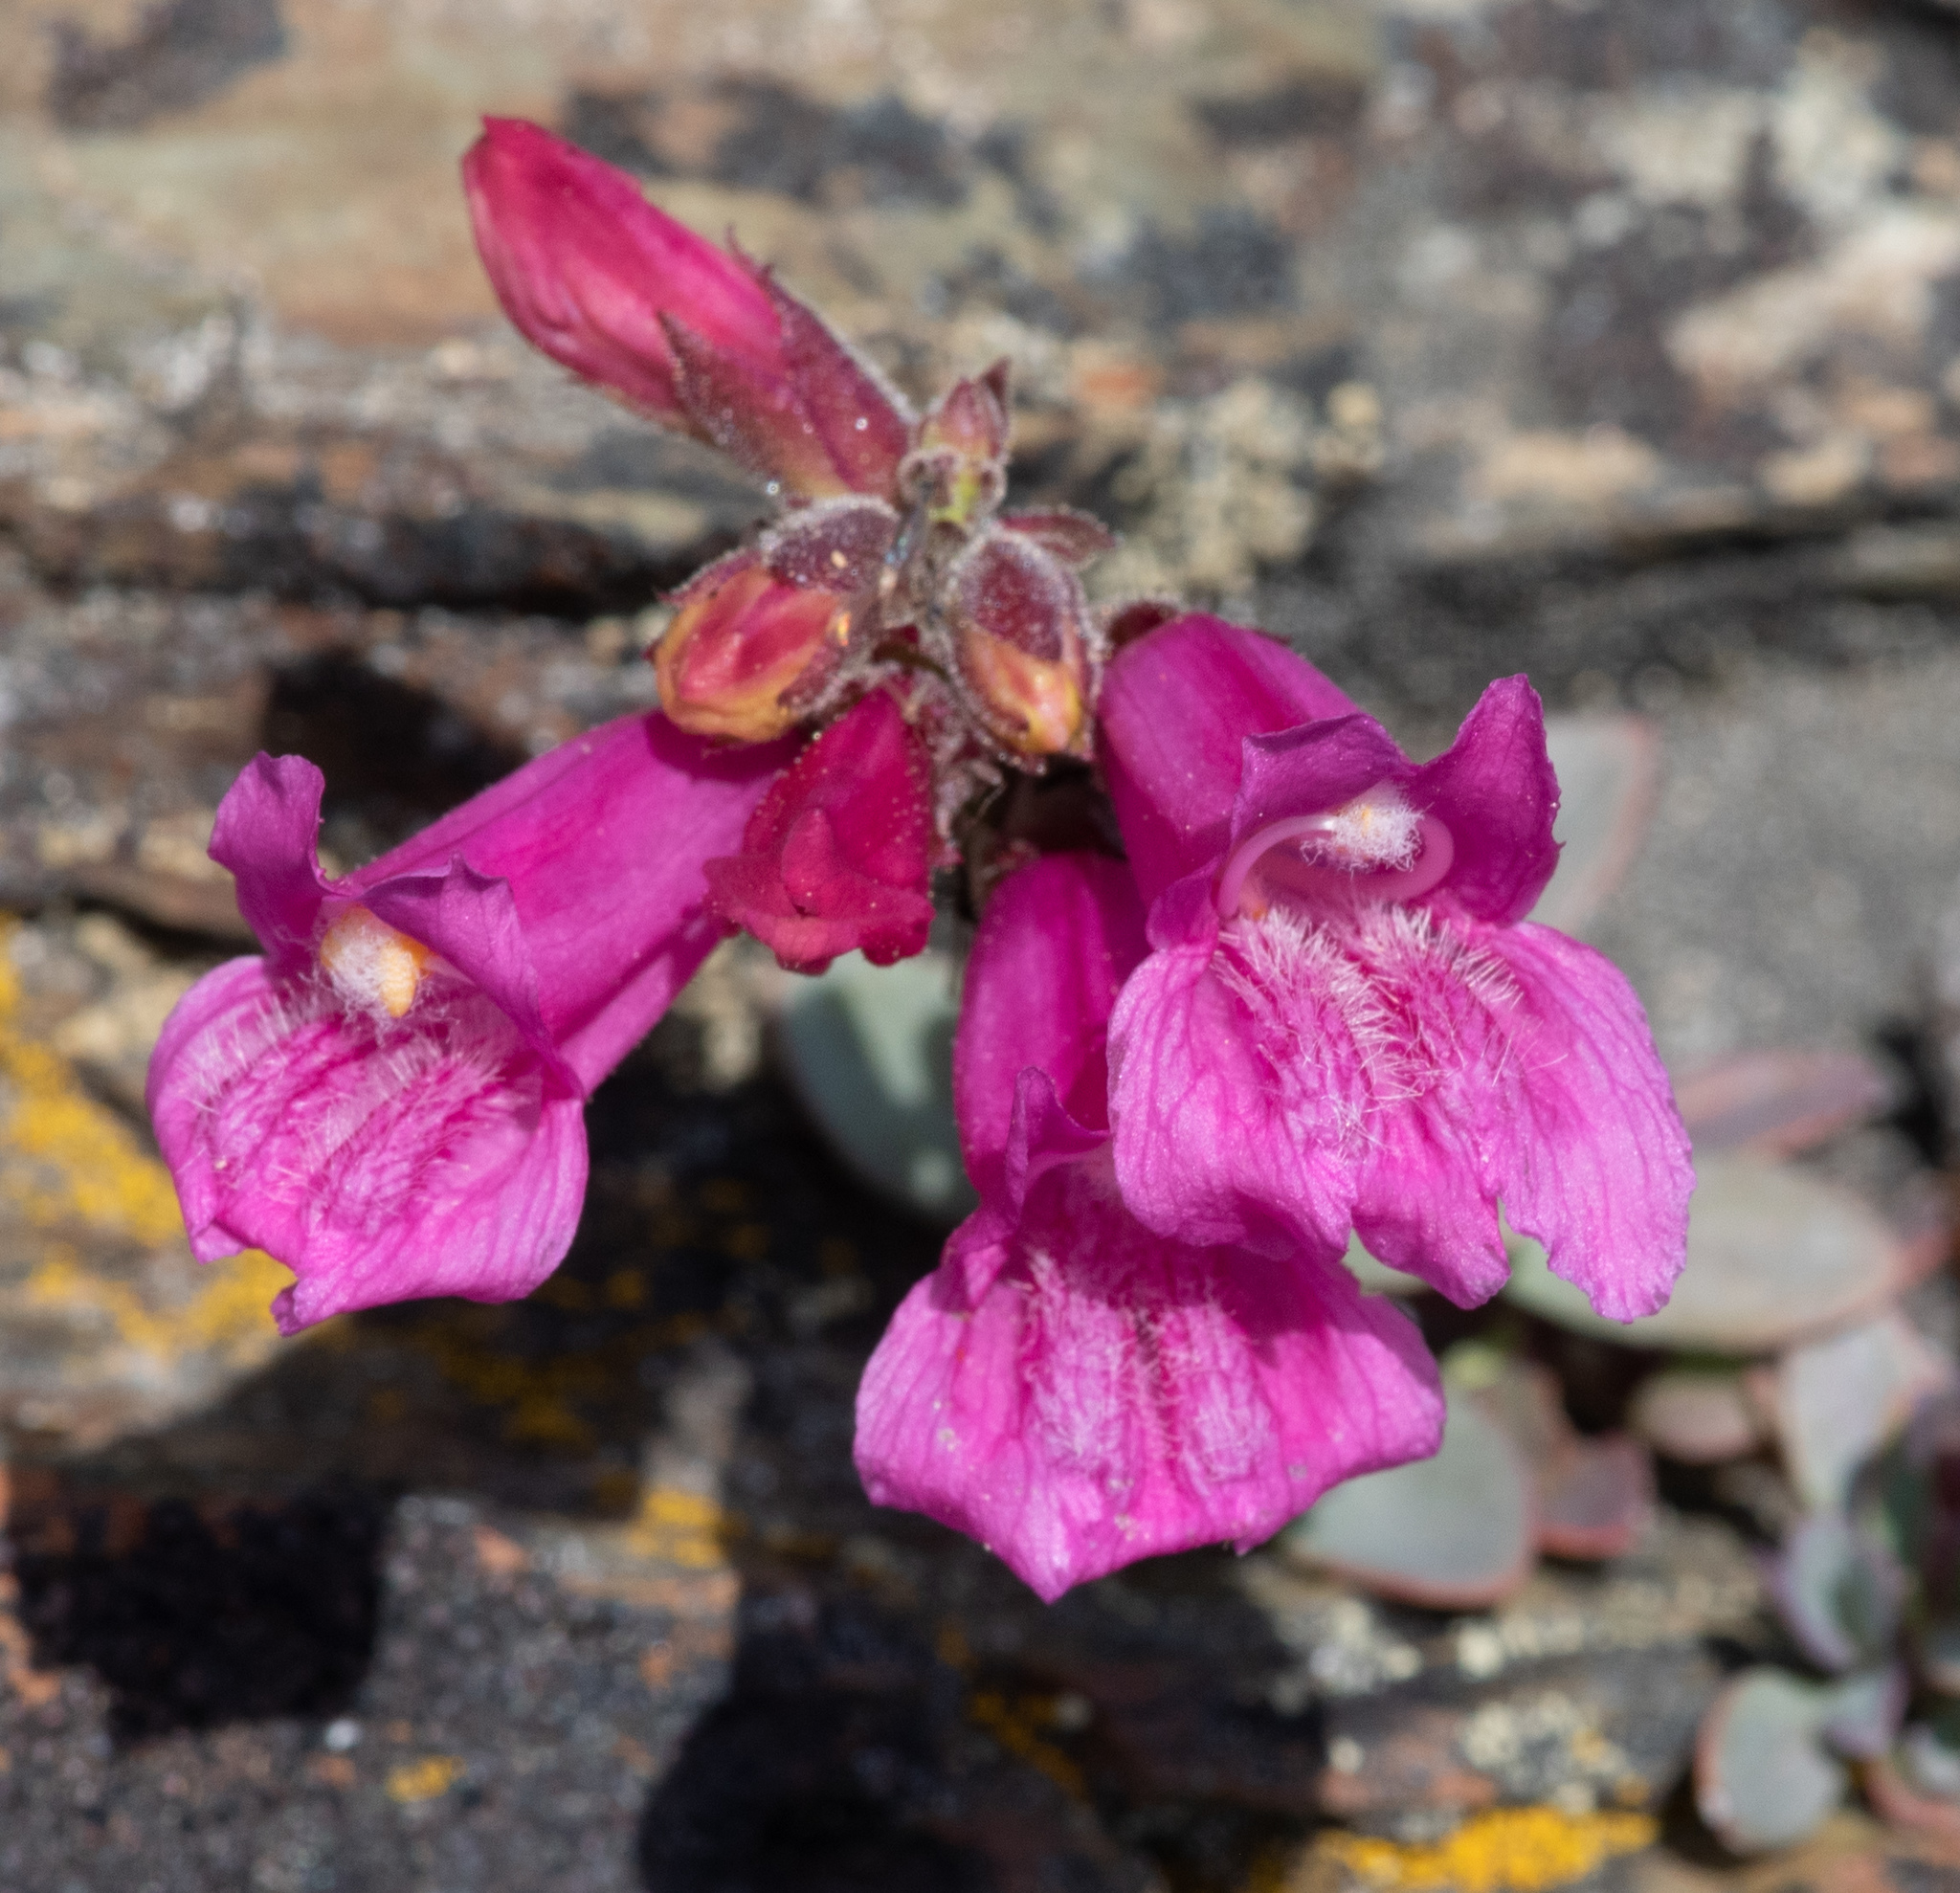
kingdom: Plantae
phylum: Tracheophyta
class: Magnoliopsida
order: Lamiales
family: Plantaginaceae
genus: Penstemon
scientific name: Penstemon newberryi
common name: Mountain-pride
